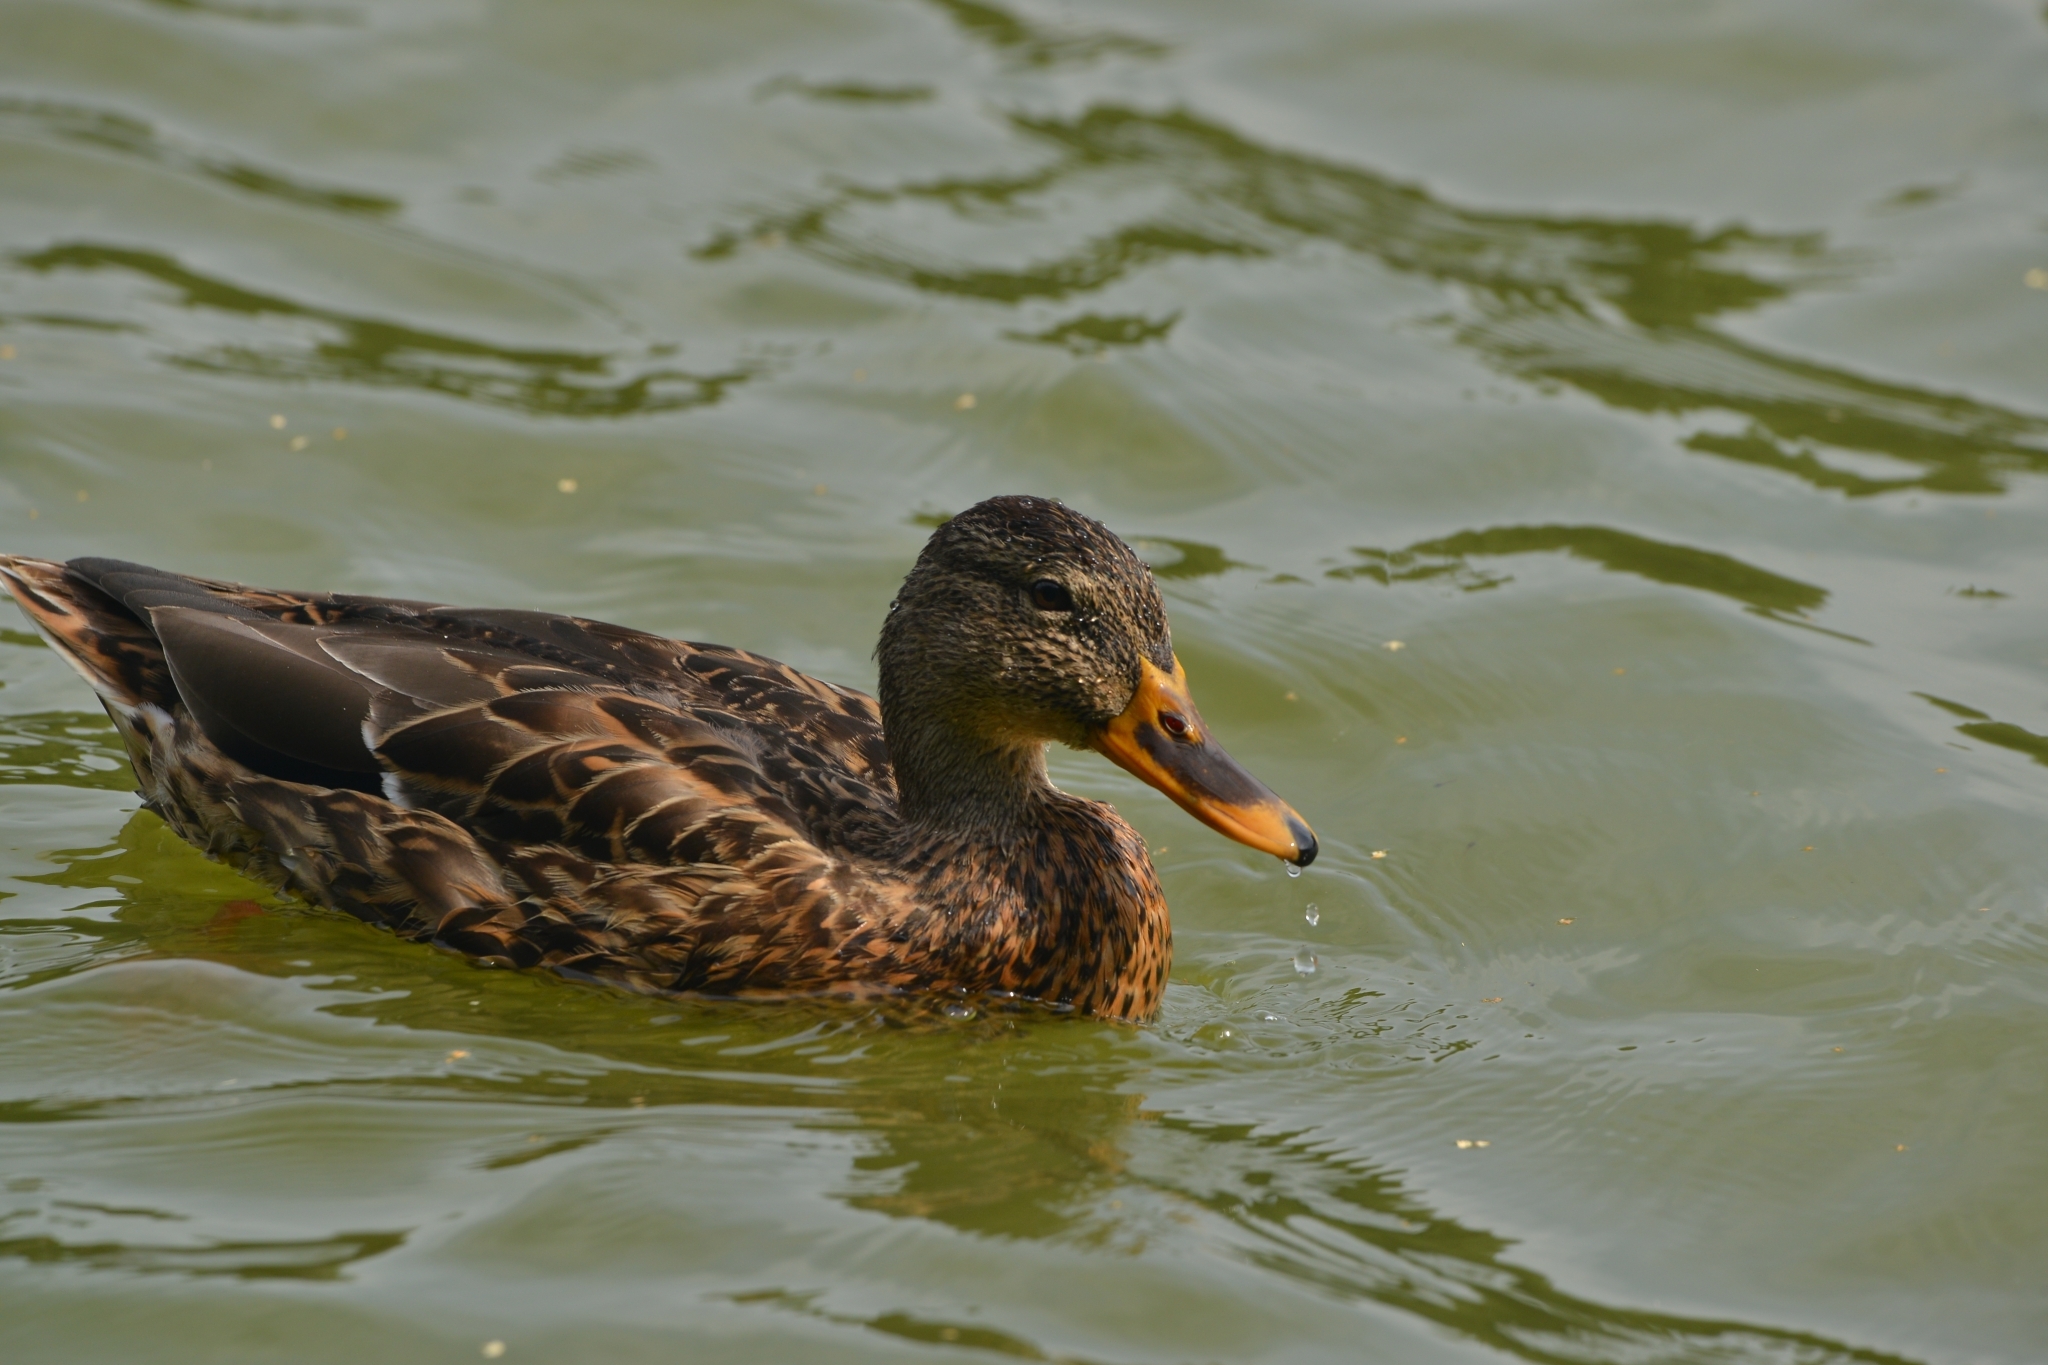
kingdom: Animalia
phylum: Chordata
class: Aves
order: Anseriformes
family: Anatidae
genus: Anas
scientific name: Anas platyrhynchos
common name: Mallard
